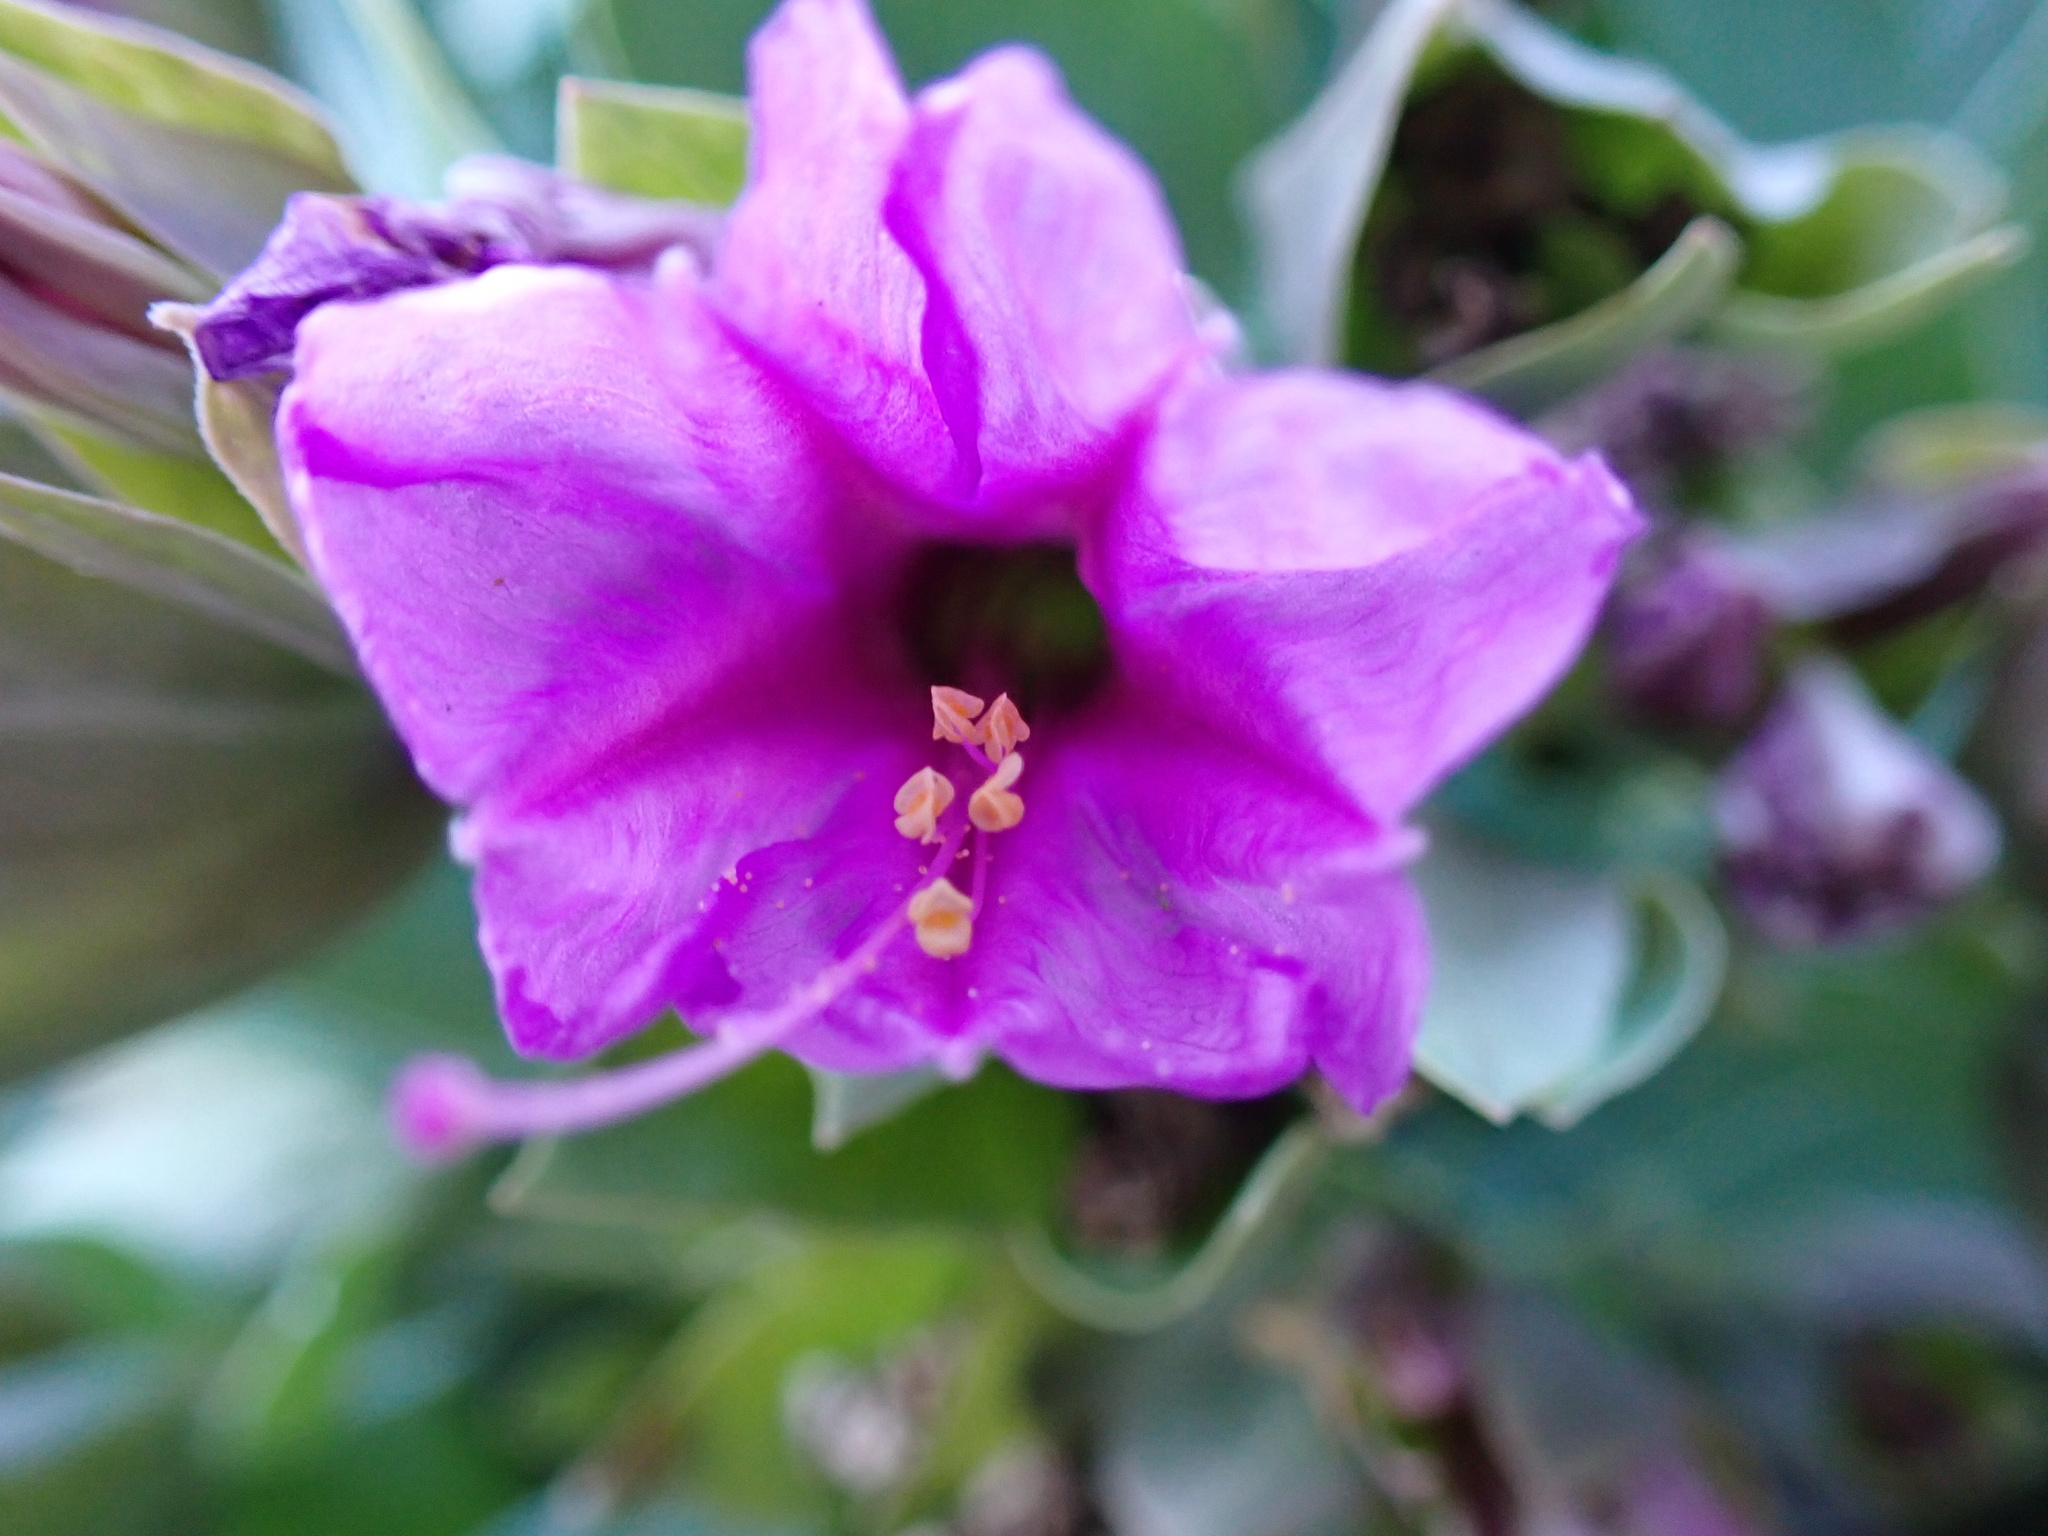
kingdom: Plantae
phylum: Tracheophyta
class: Magnoliopsida
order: Caryophyllales
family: Nyctaginaceae
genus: Mirabilis
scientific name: Mirabilis multiflora
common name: Froebel's four-o'clock
